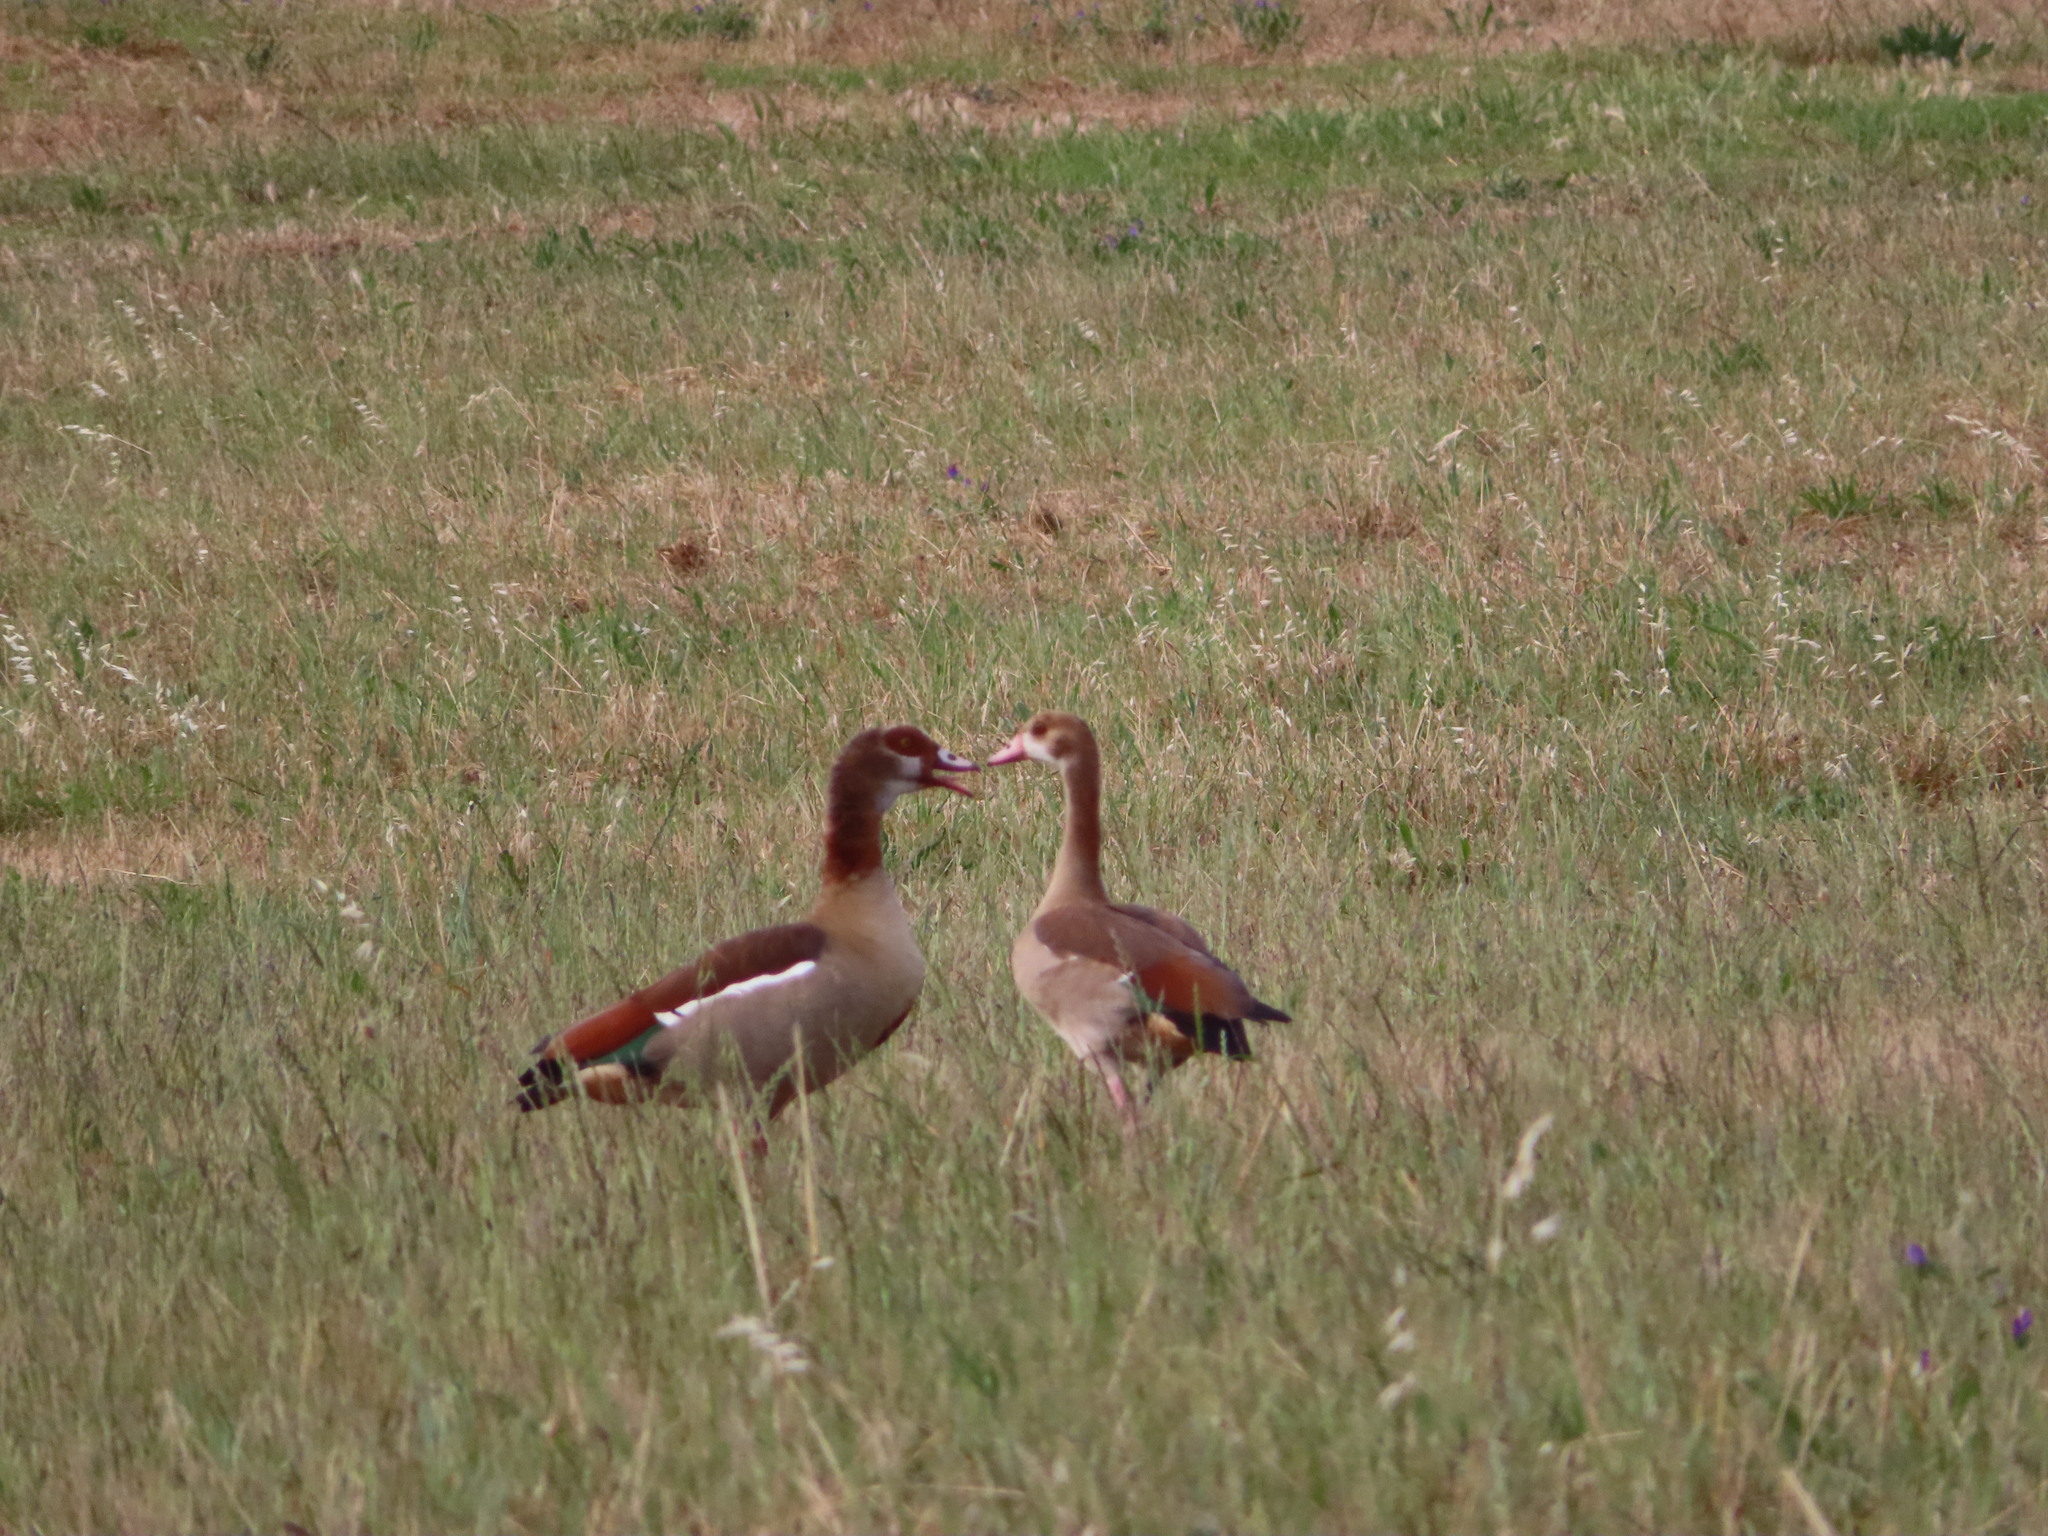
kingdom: Animalia
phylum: Chordata
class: Aves
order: Anseriformes
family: Anatidae
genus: Alopochen
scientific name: Alopochen aegyptiaca
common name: Egyptian goose
